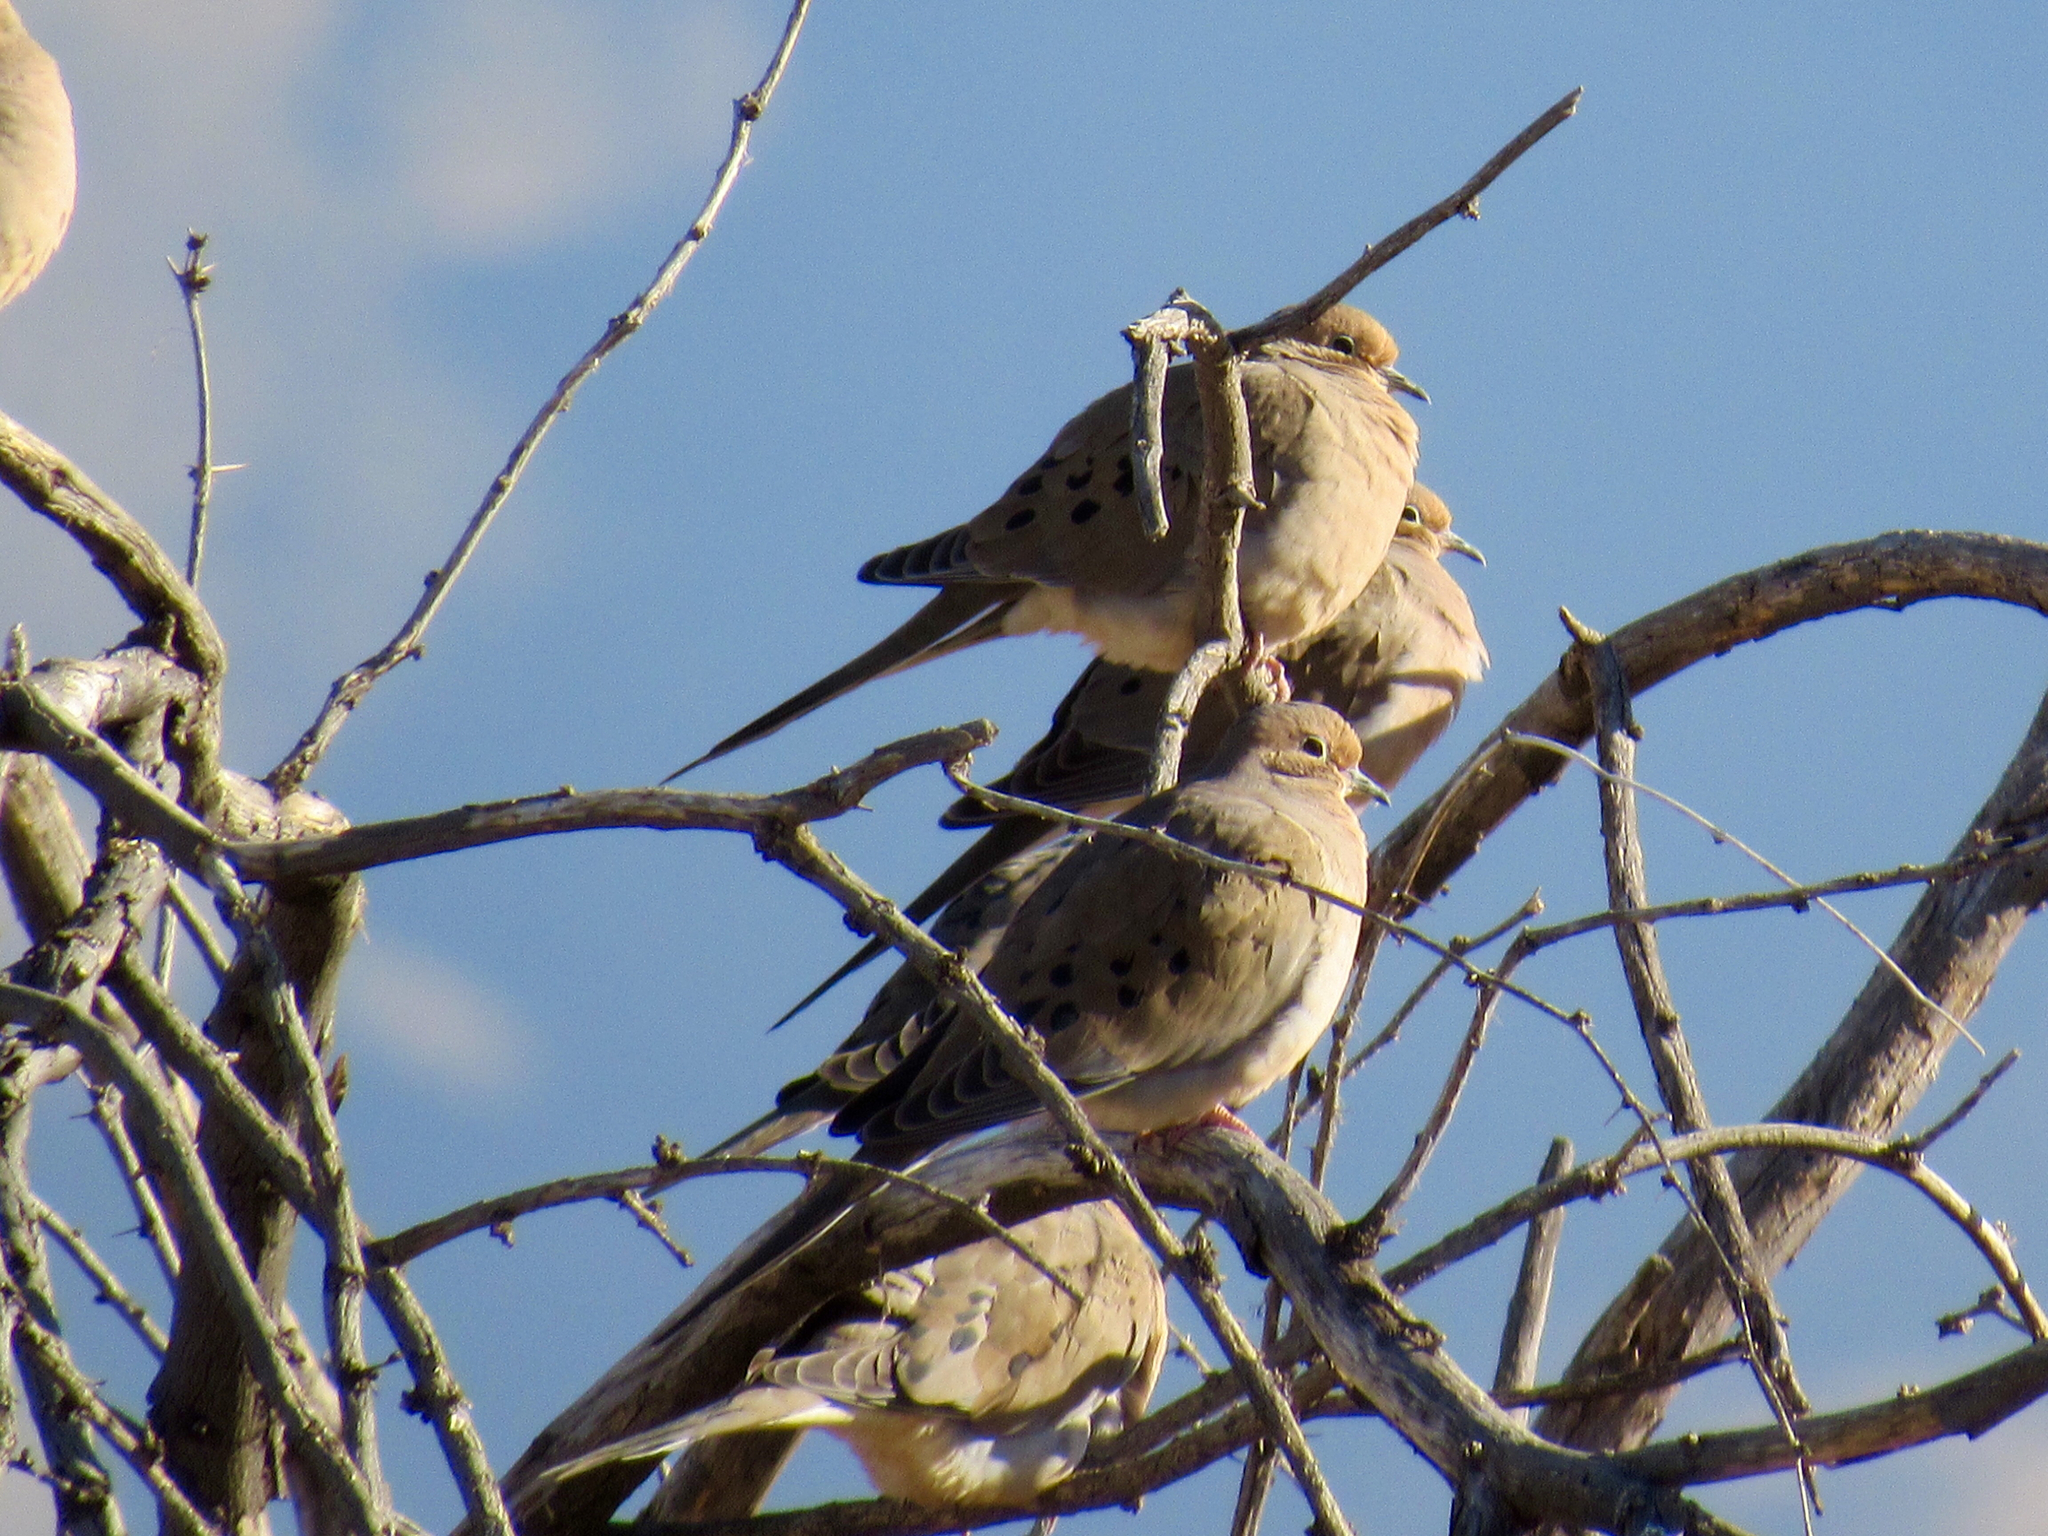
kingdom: Animalia
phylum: Chordata
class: Aves
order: Columbiformes
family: Columbidae
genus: Zenaida
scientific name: Zenaida macroura
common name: Mourning dove
